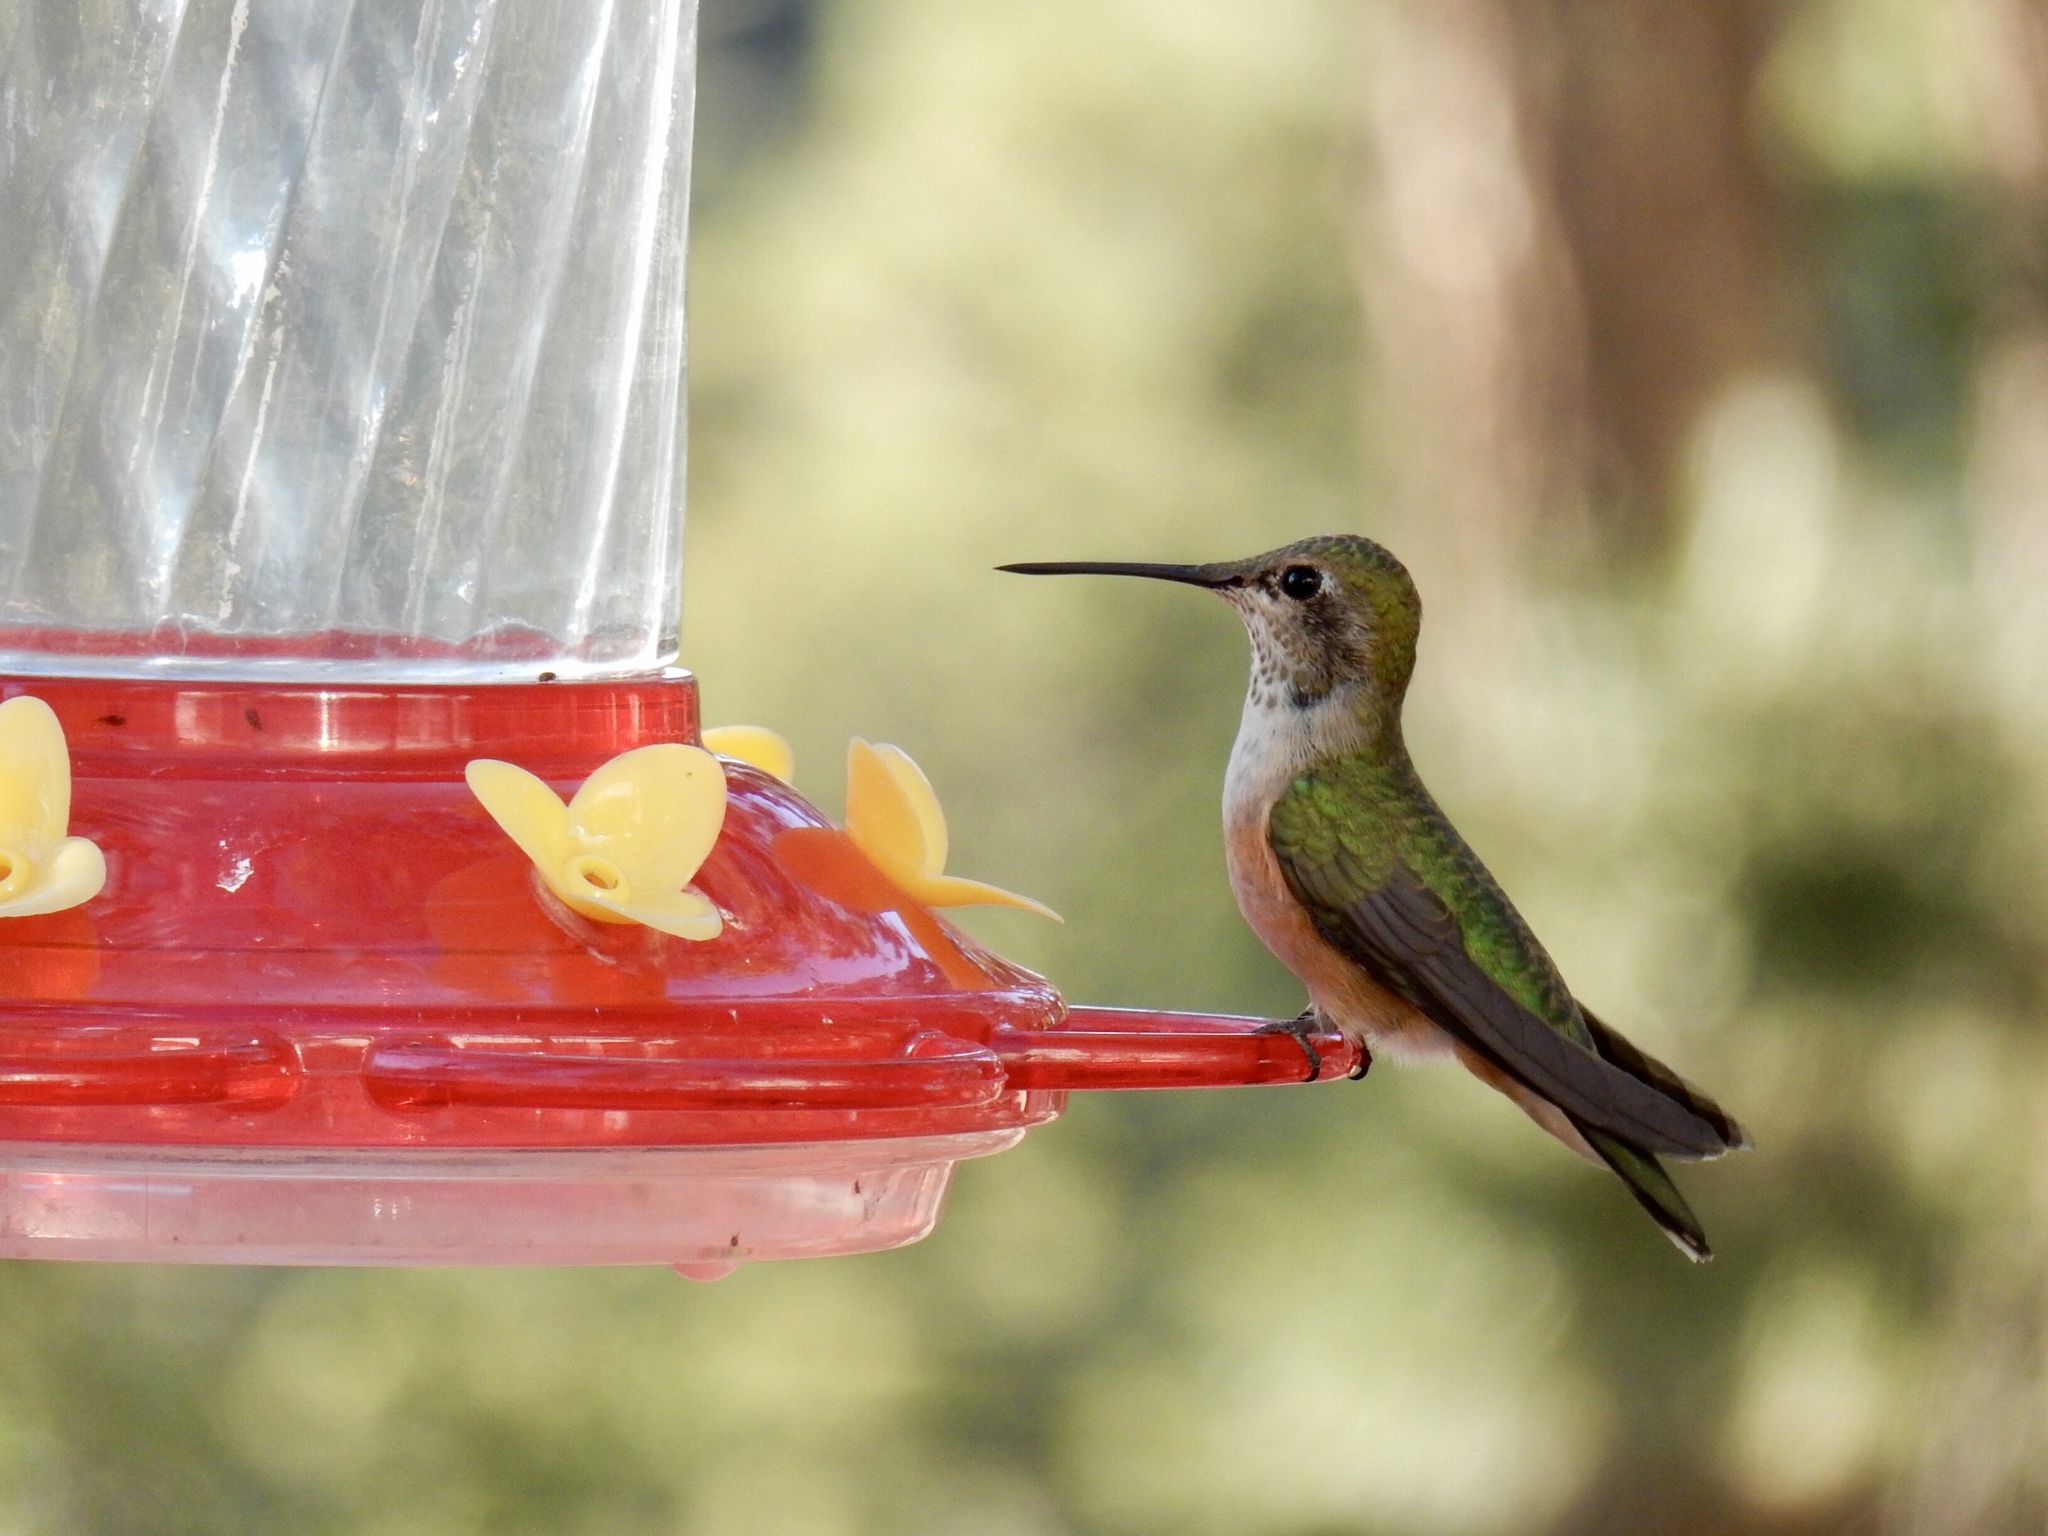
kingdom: Animalia
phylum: Chordata
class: Aves
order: Apodiformes
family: Trochilidae
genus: Selasphorus
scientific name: Selasphorus
